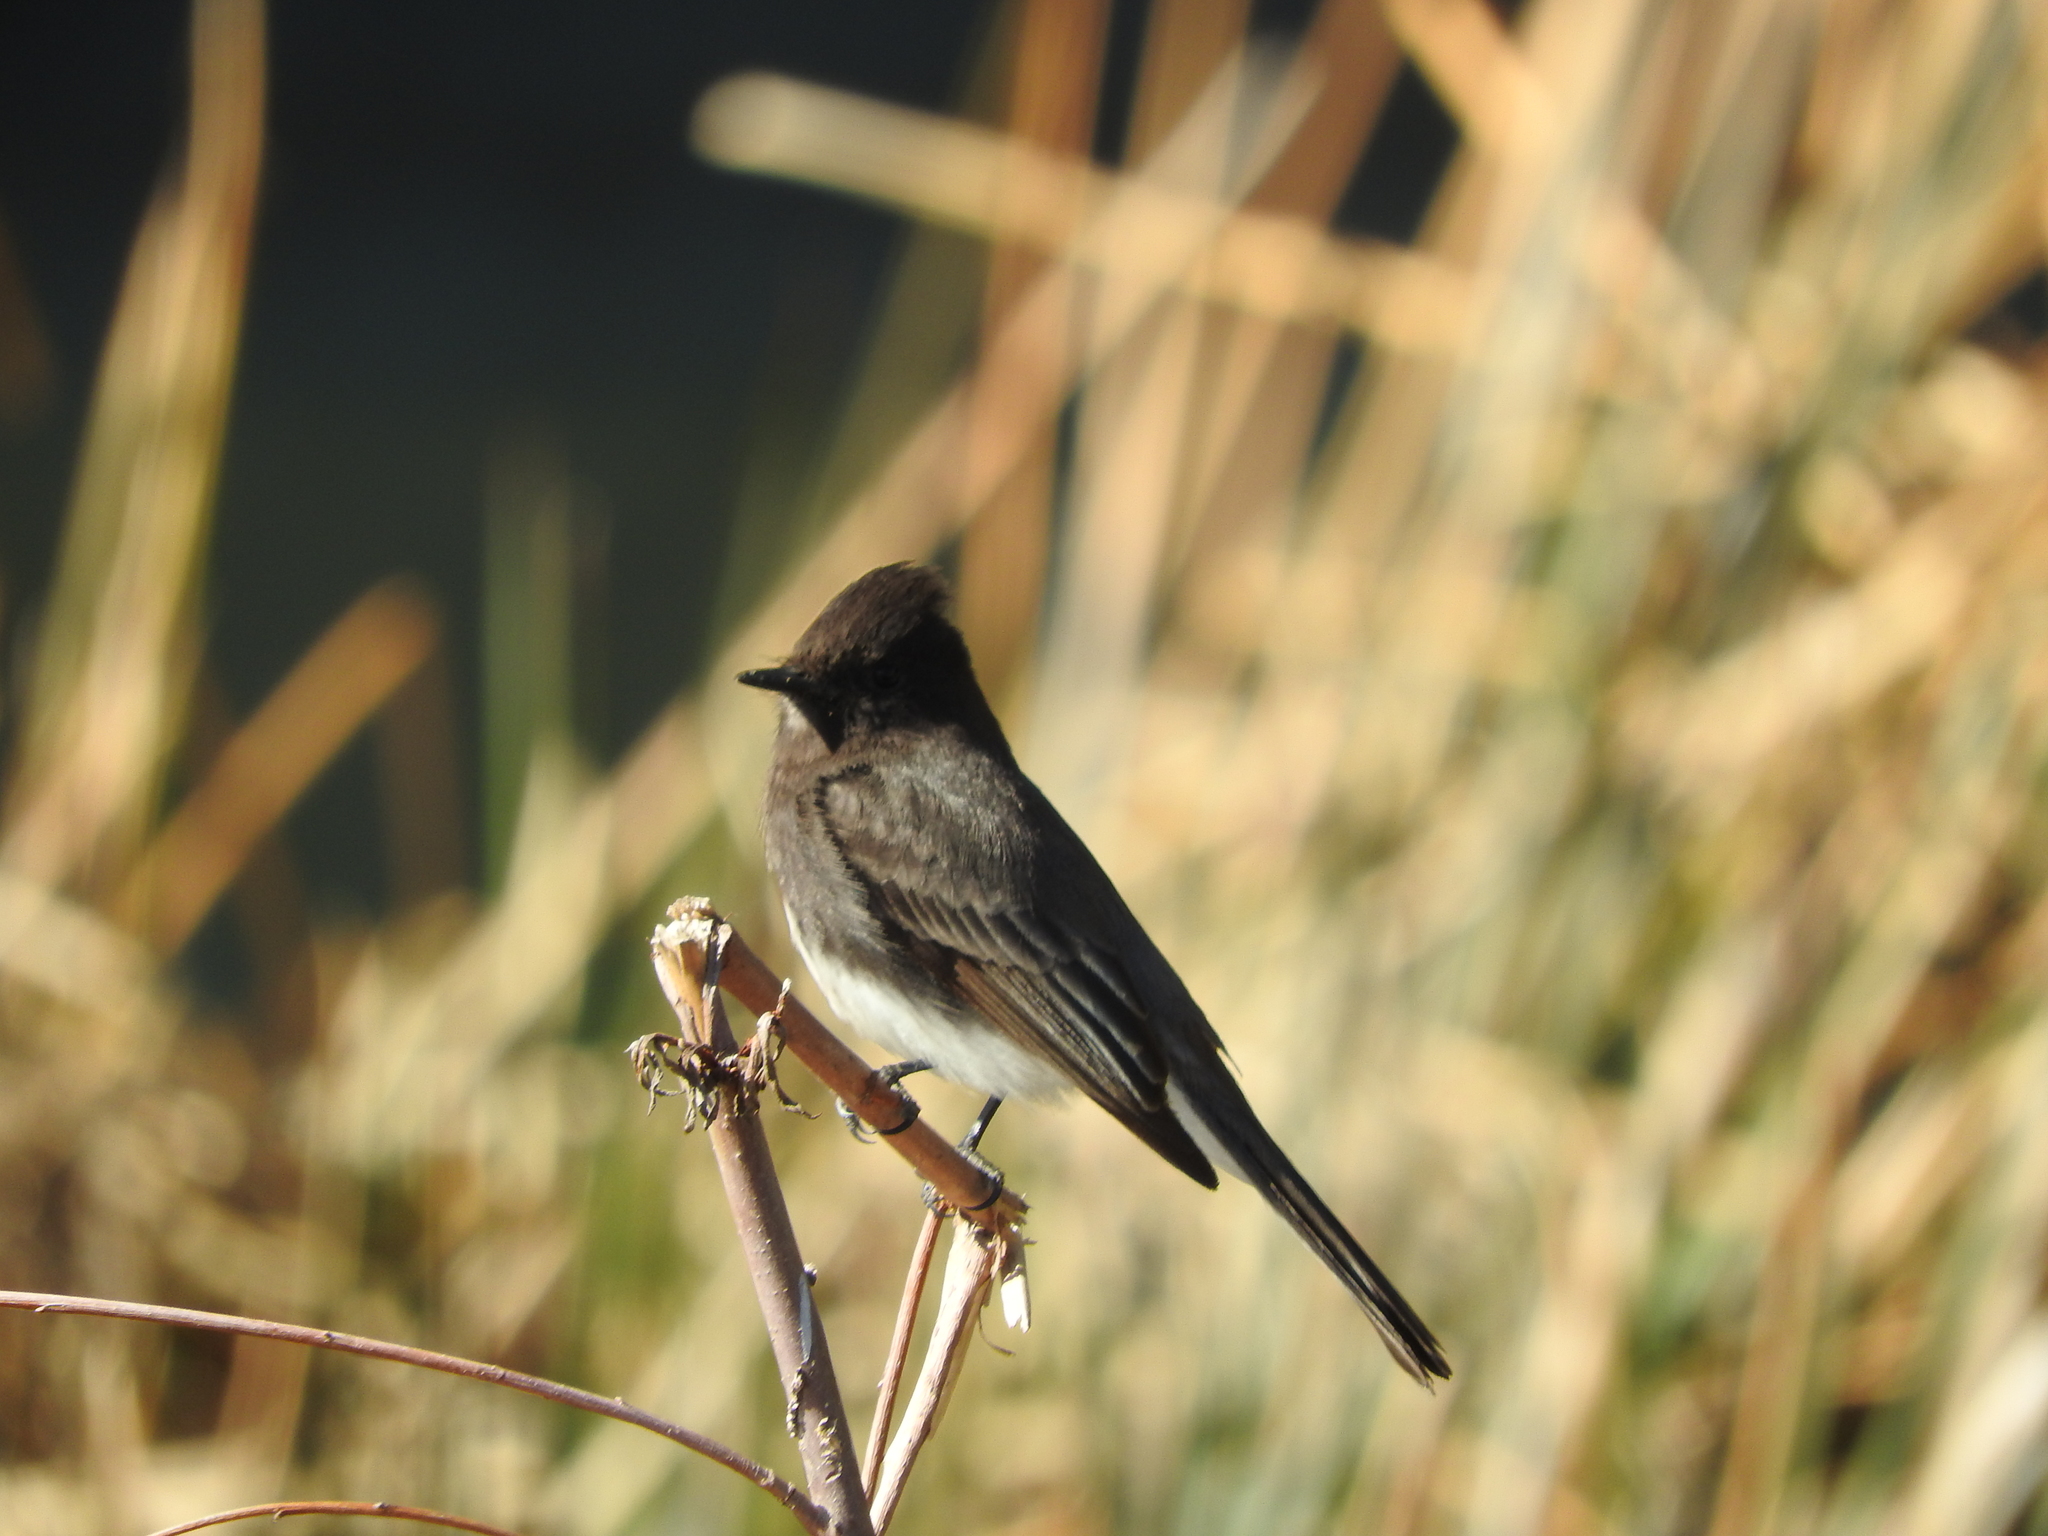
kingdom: Animalia
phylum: Chordata
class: Aves
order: Passeriformes
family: Tyrannidae
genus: Sayornis
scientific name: Sayornis nigricans
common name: Black phoebe
